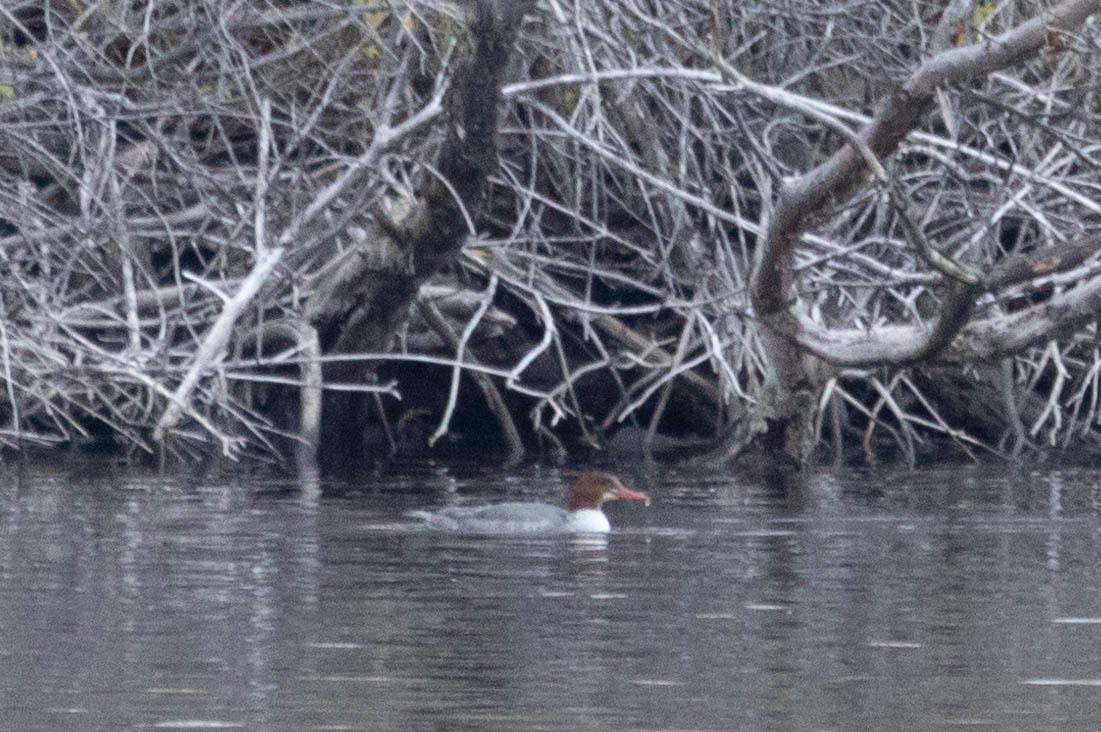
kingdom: Animalia
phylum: Chordata
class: Aves
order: Anseriformes
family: Anatidae
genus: Mergus
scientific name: Mergus merganser
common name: Common merganser
